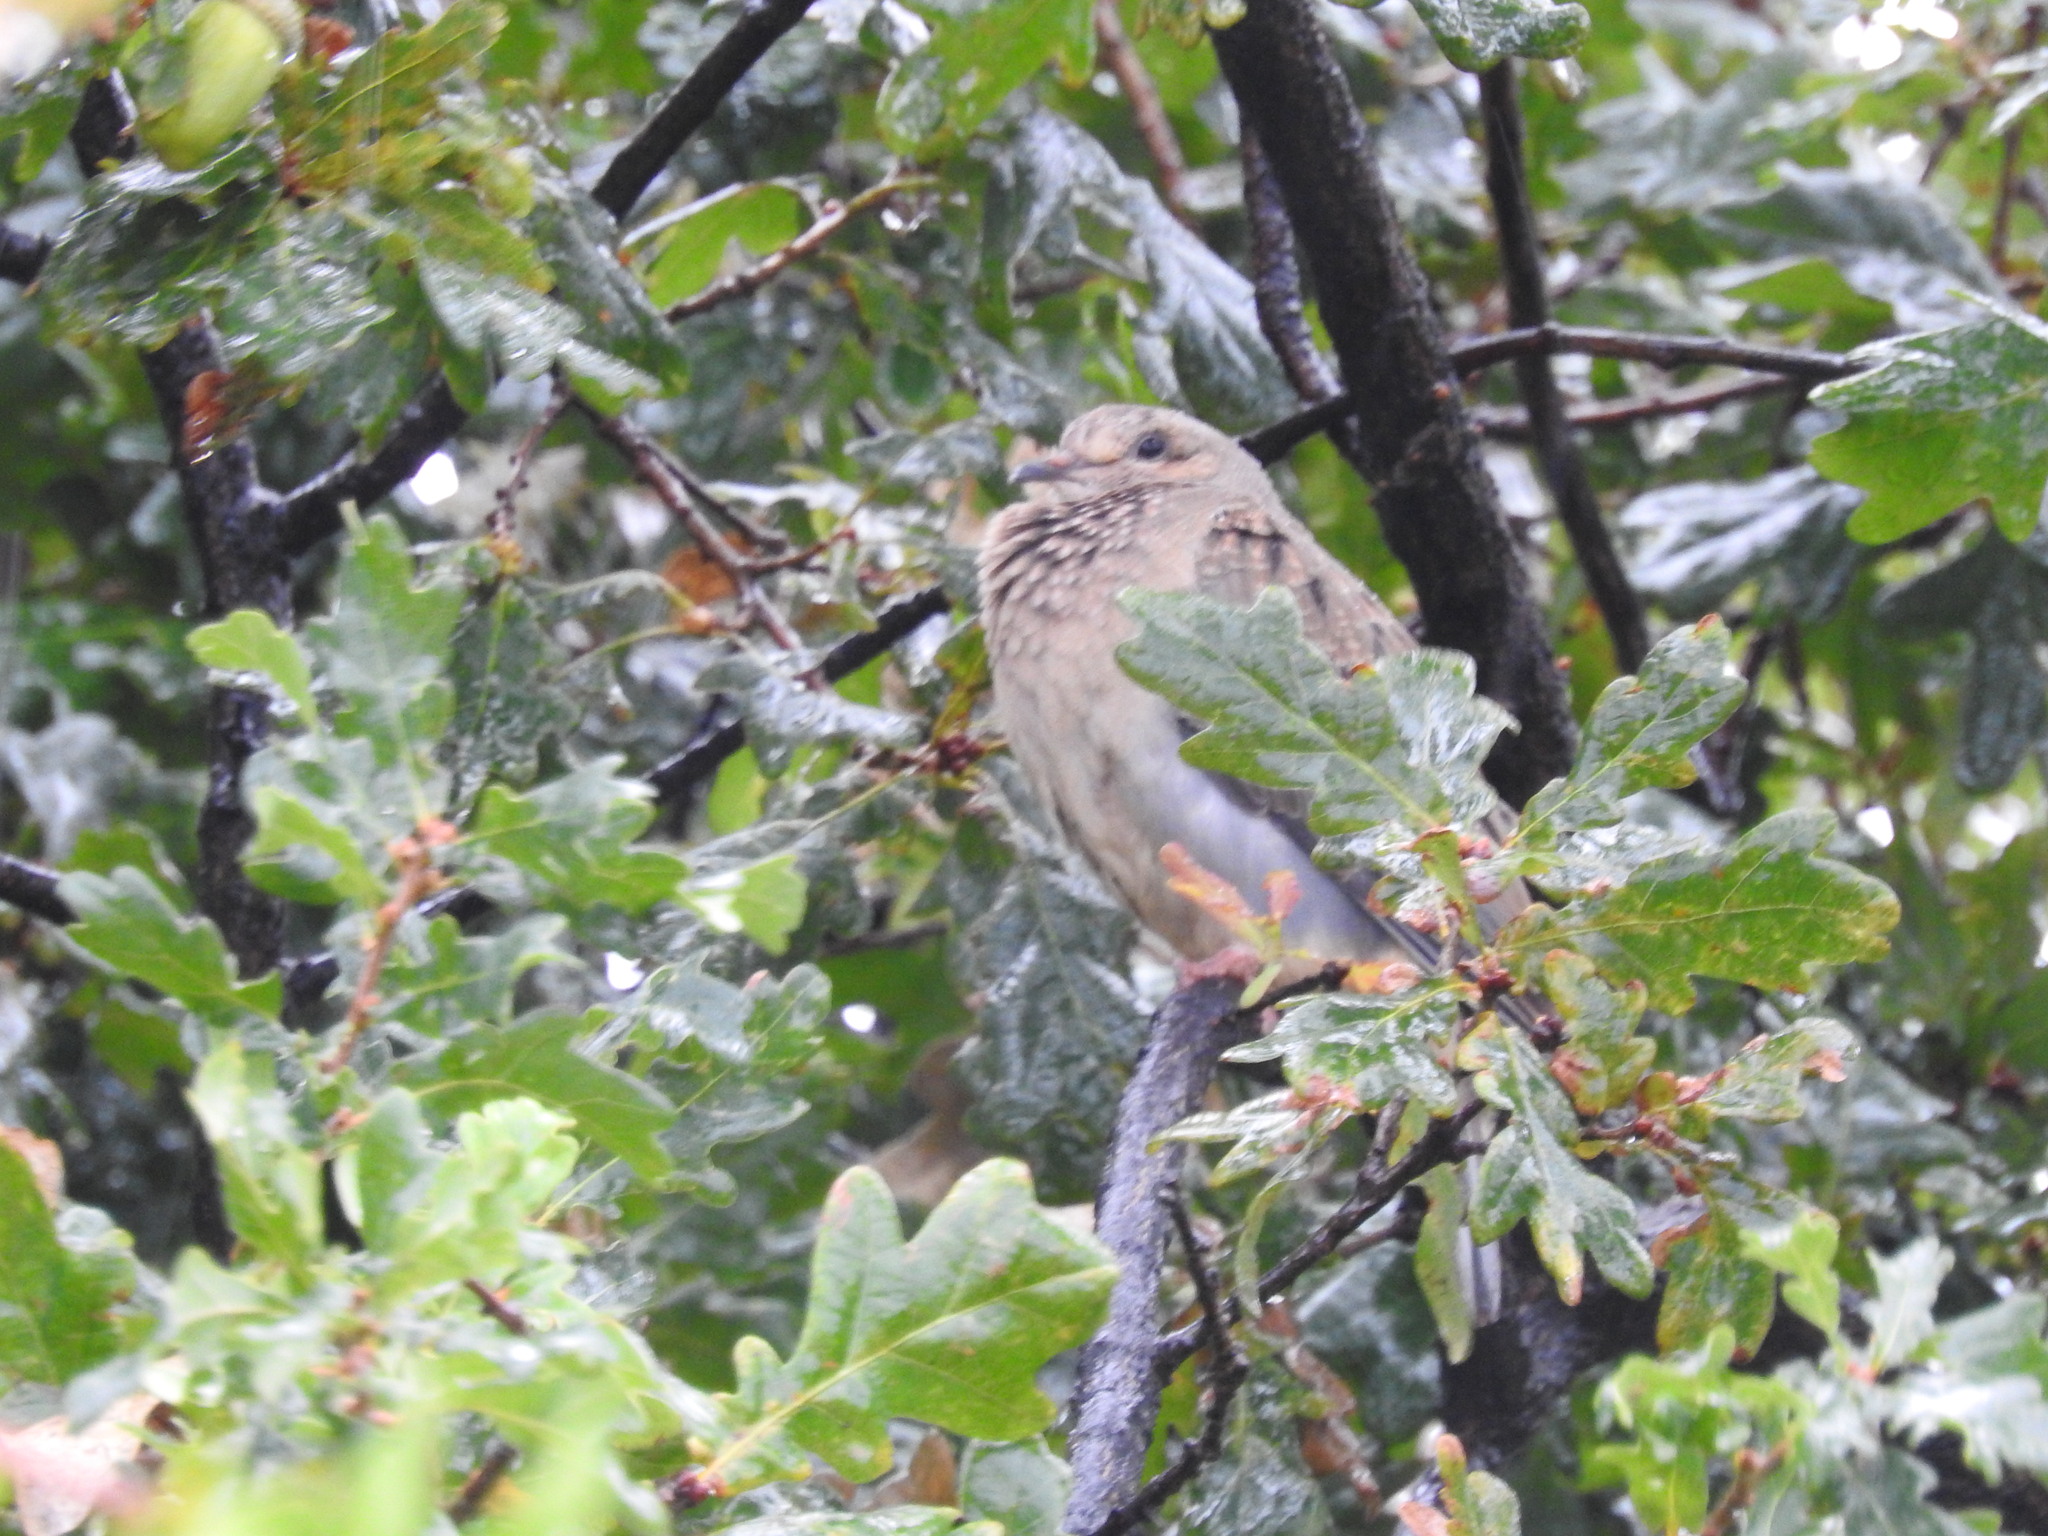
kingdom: Animalia
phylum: Chordata
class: Aves
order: Columbiformes
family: Columbidae
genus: Zenaida
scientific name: Zenaida auriculata
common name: Eared dove
